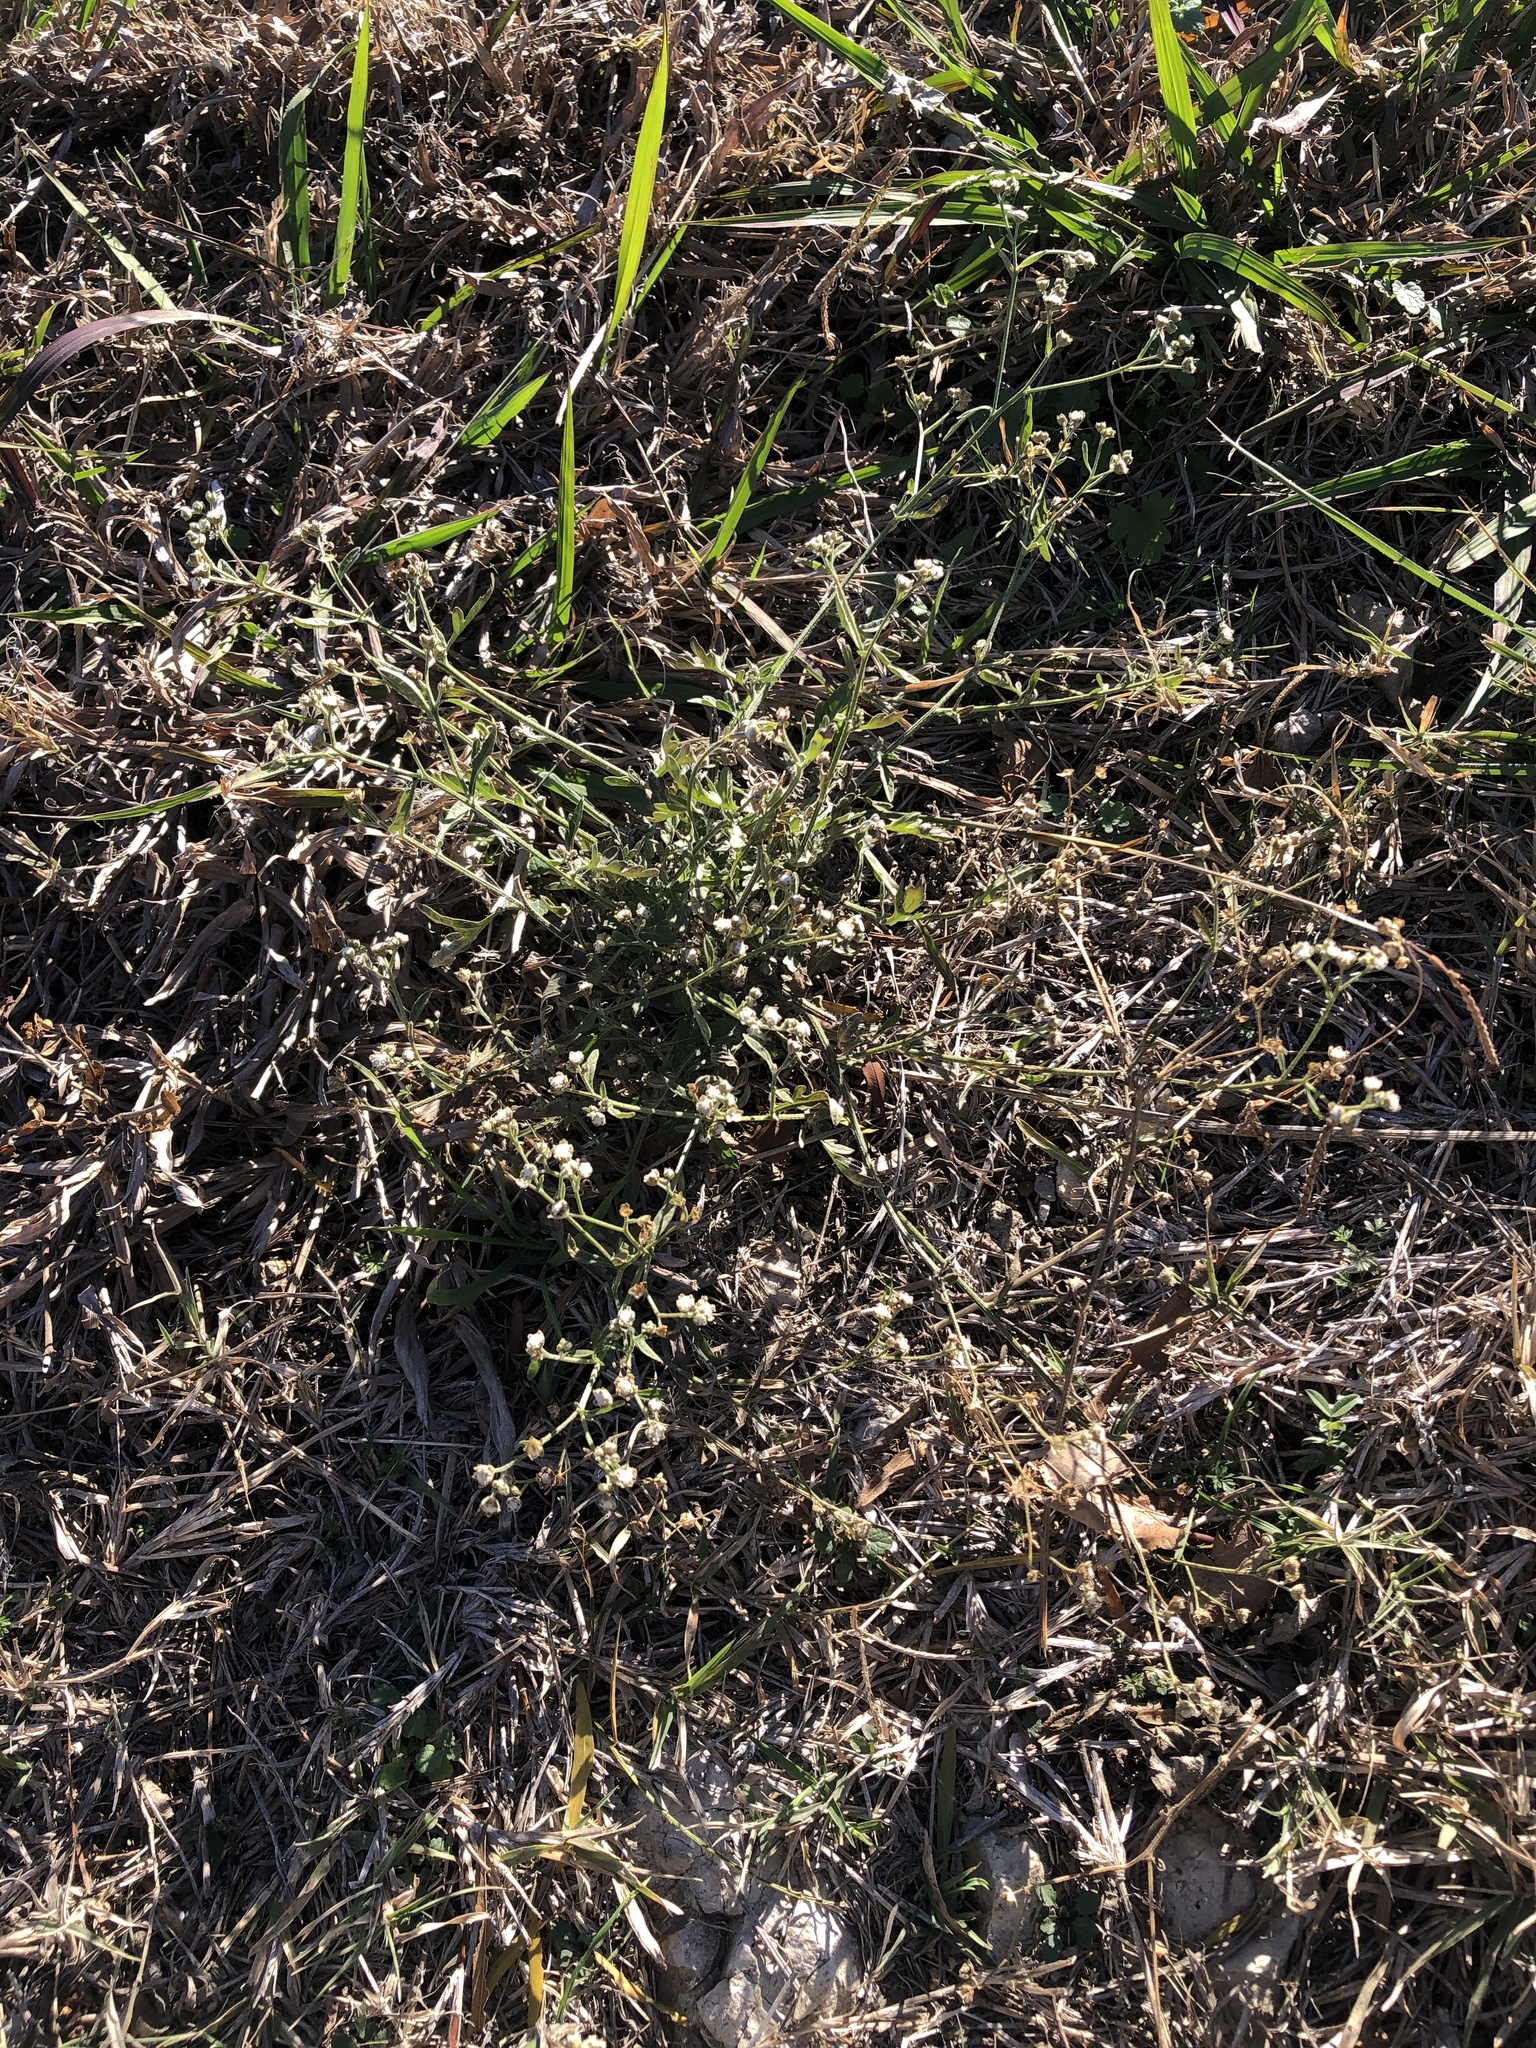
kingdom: Plantae
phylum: Tracheophyta
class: Magnoliopsida
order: Asterales
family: Asteraceae
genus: Parthenium
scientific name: Parthenium hysterophorus
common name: Santa maria feverfew
